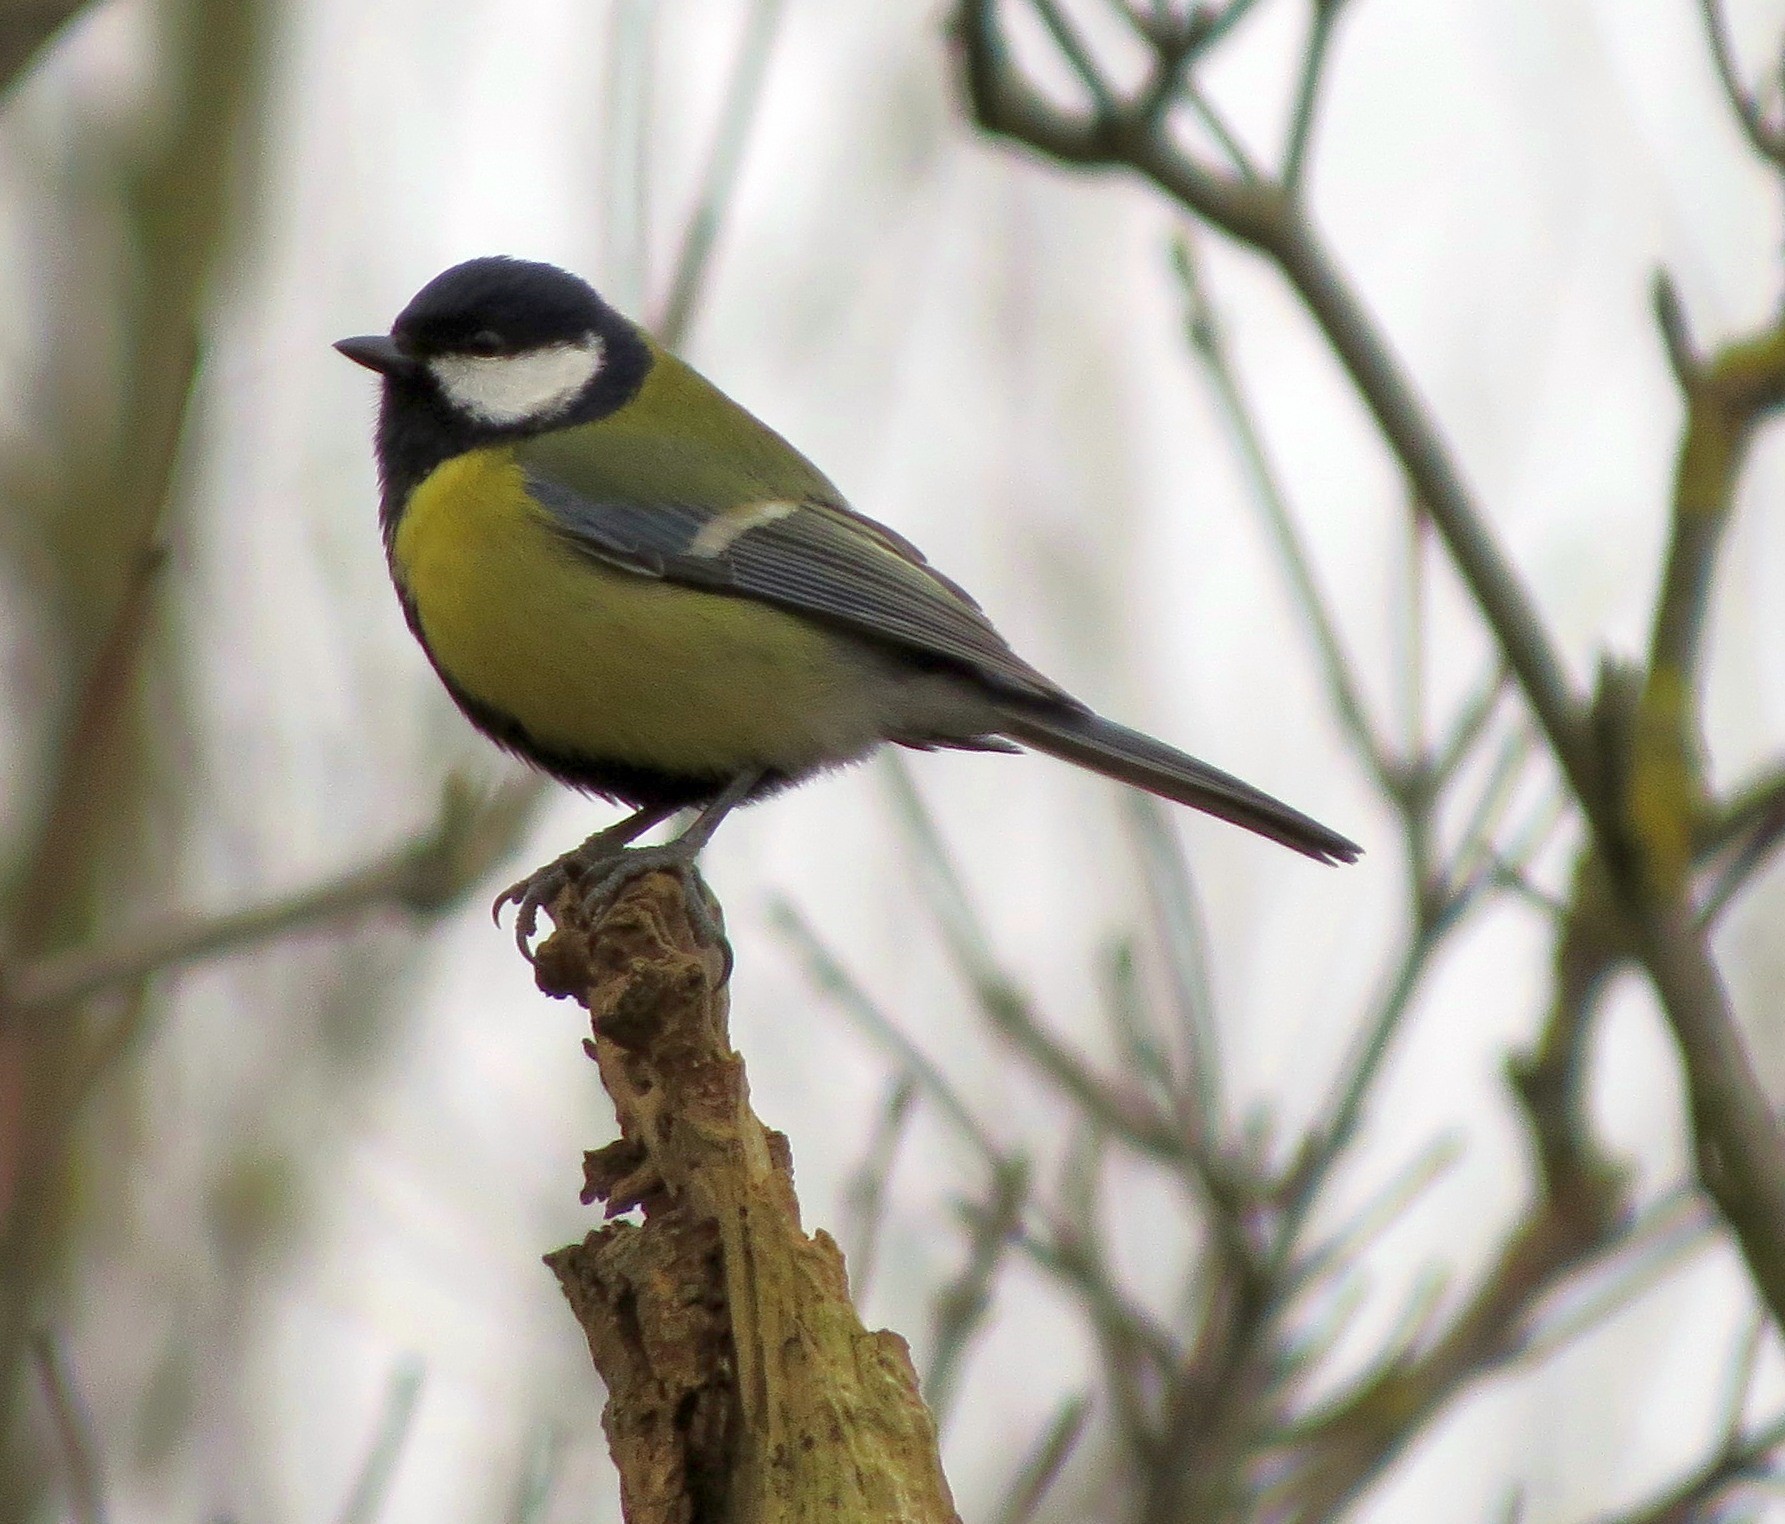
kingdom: Animalia
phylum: Chordata
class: Aves
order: Passeriformes
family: Paridae
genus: Parus
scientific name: Parus major
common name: Great tit
